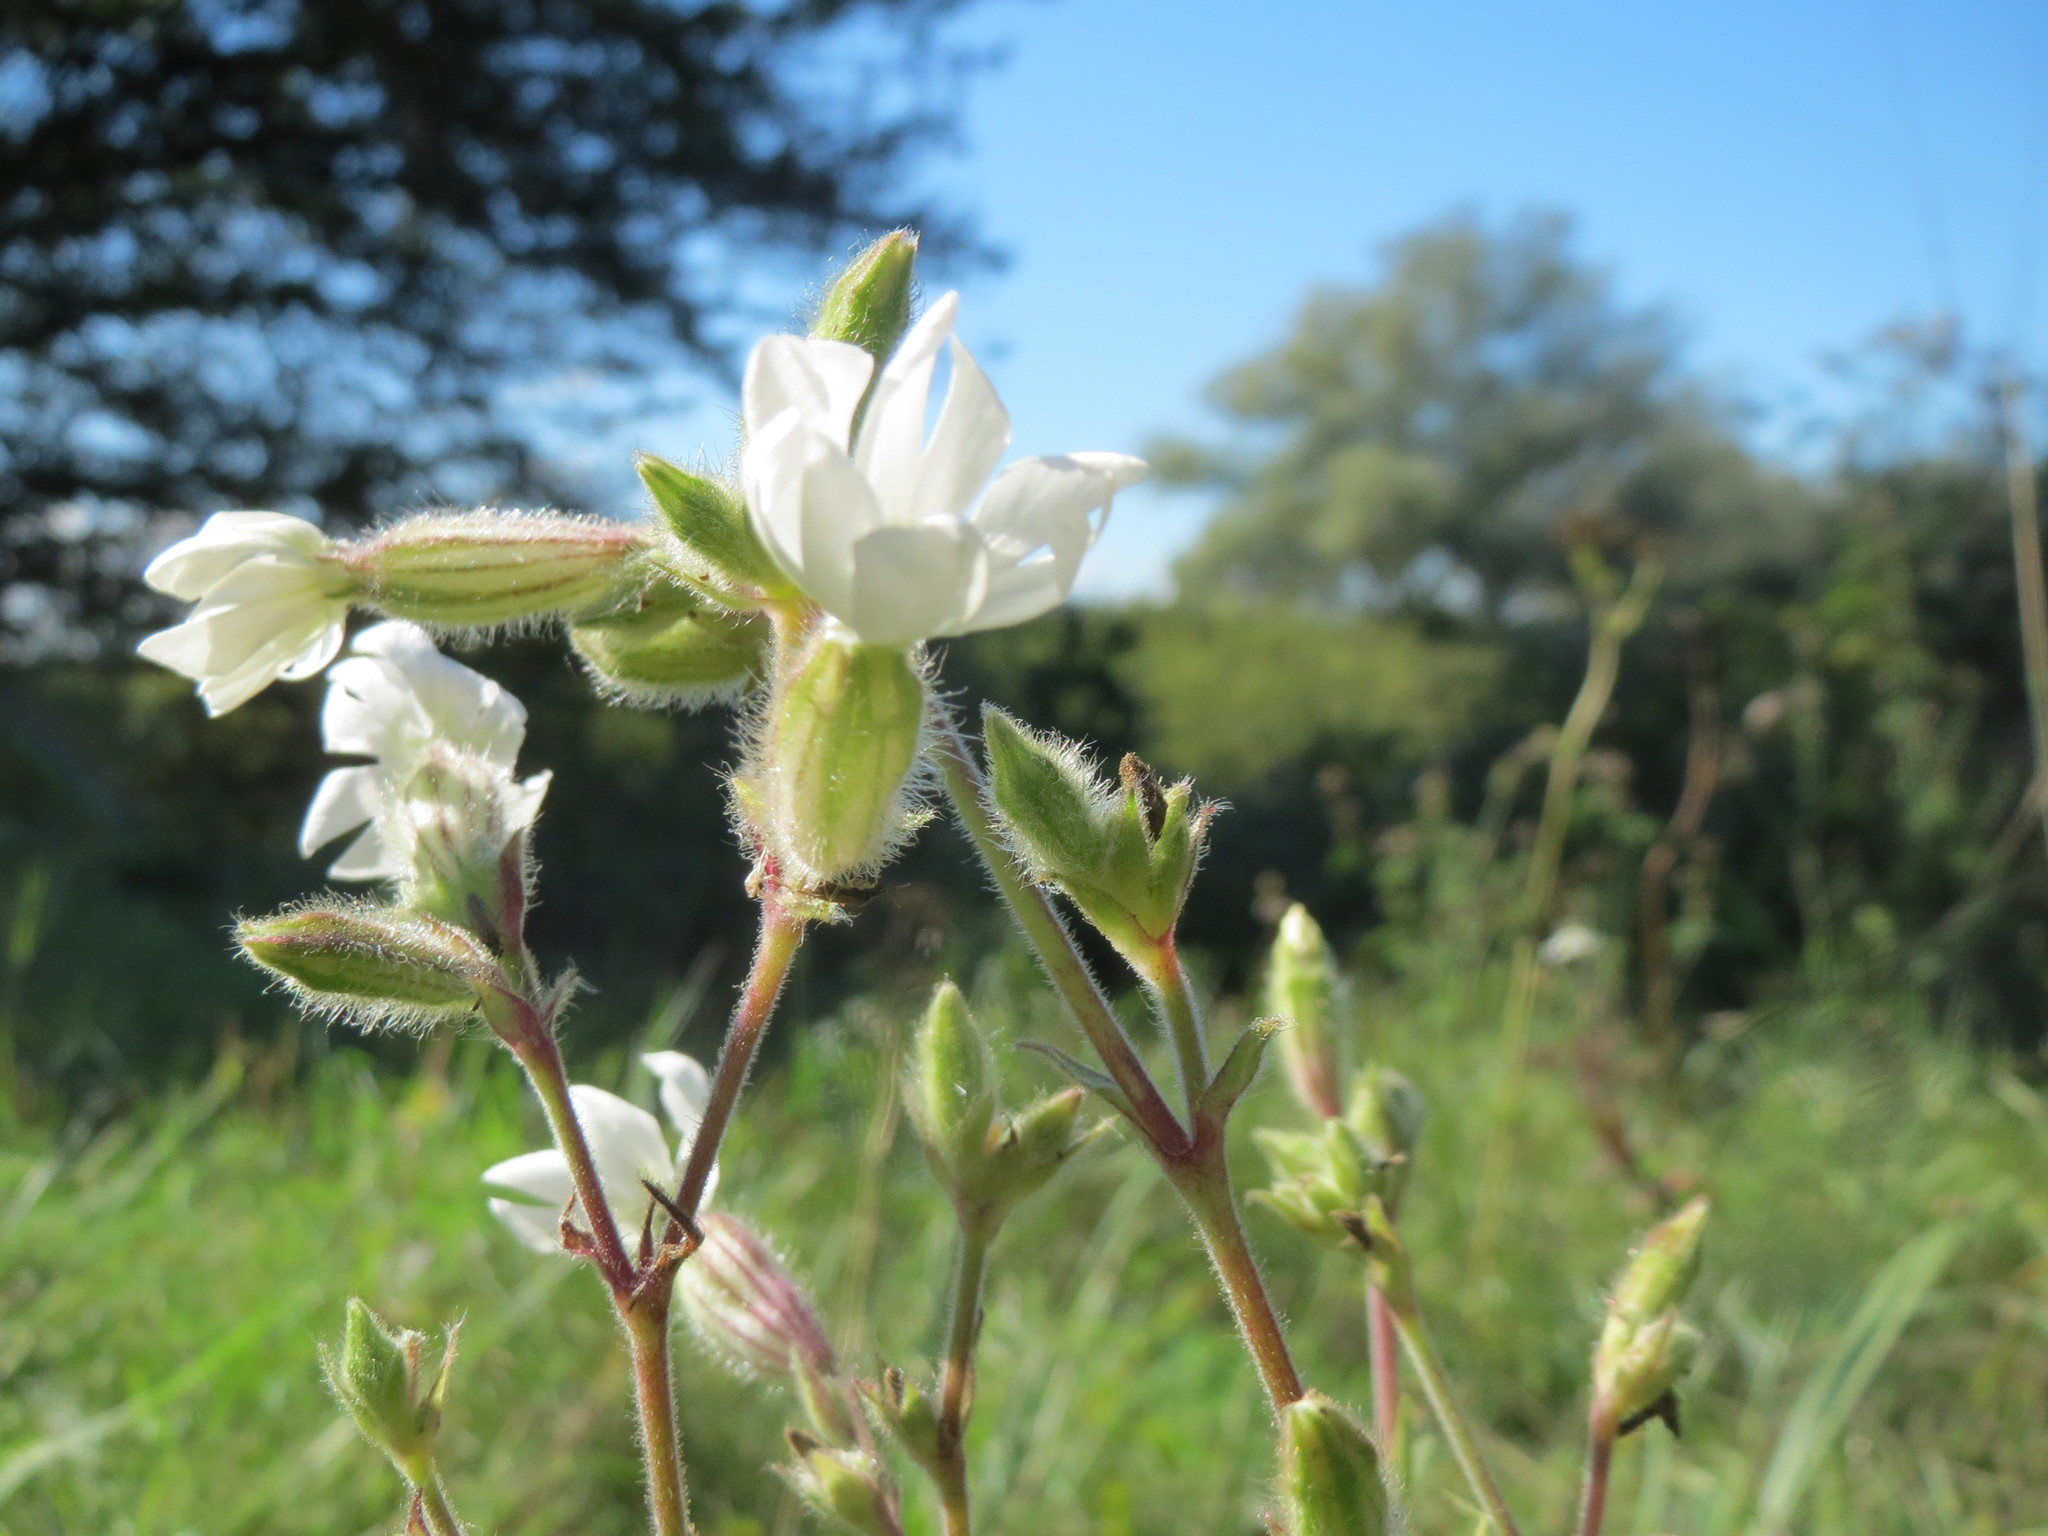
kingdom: Plantae
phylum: Tracheophyta
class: Magnoliopsida
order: Caryophyllales
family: Caryophyllaceae
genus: Silene
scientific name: Silene latifolia
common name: White campion
